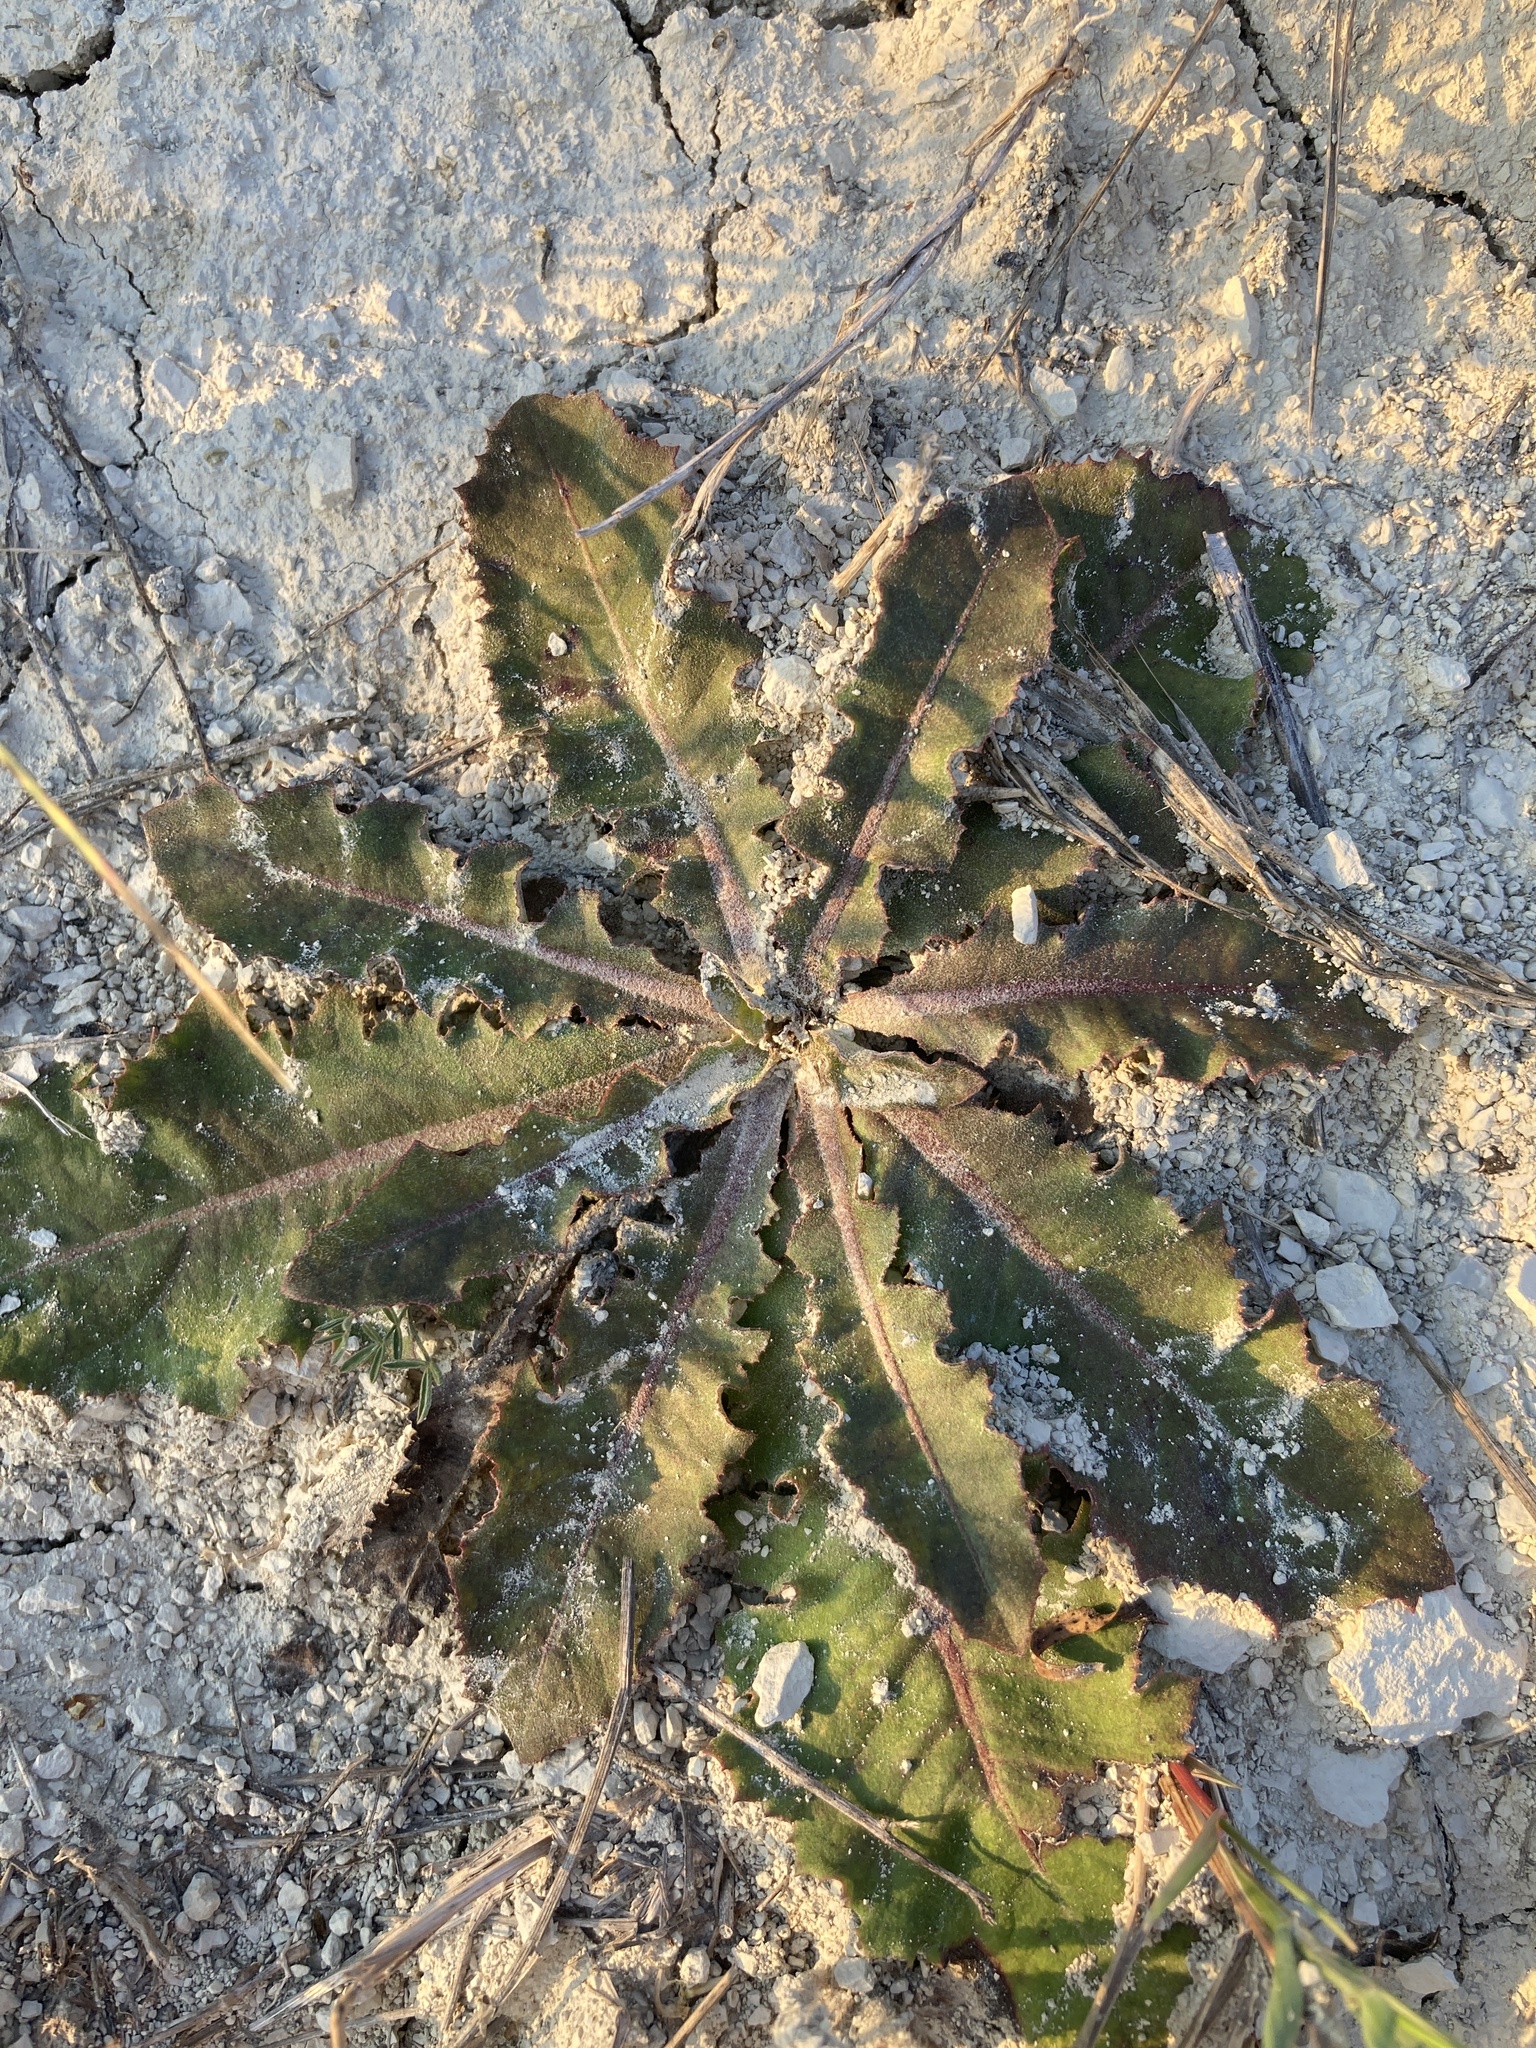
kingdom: Plantae
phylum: Tracheophyta
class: Magnoliopsida
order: Asterales
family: Asteraceae
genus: Taraxacum
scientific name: Taraxacum serotinum
